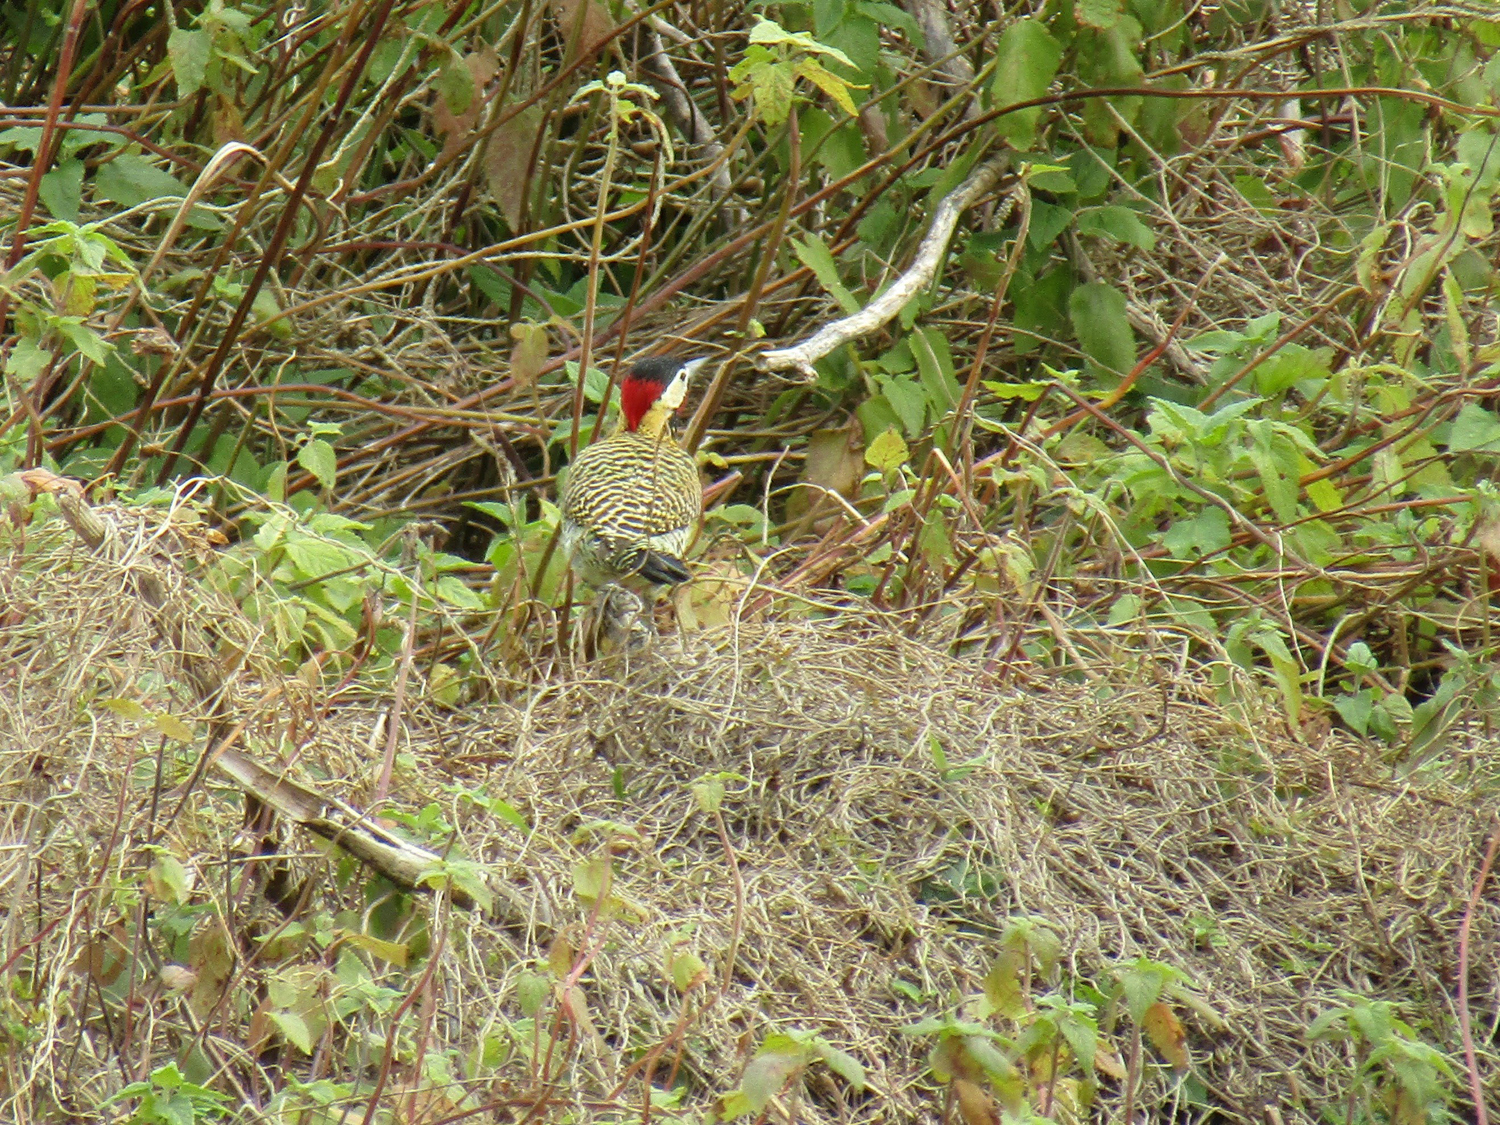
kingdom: Animalia
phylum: Chordata
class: Aves
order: Piciformes
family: Picidae
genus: Colaptes
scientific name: Colaptes melanochloros
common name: Green-barred woodpecker
